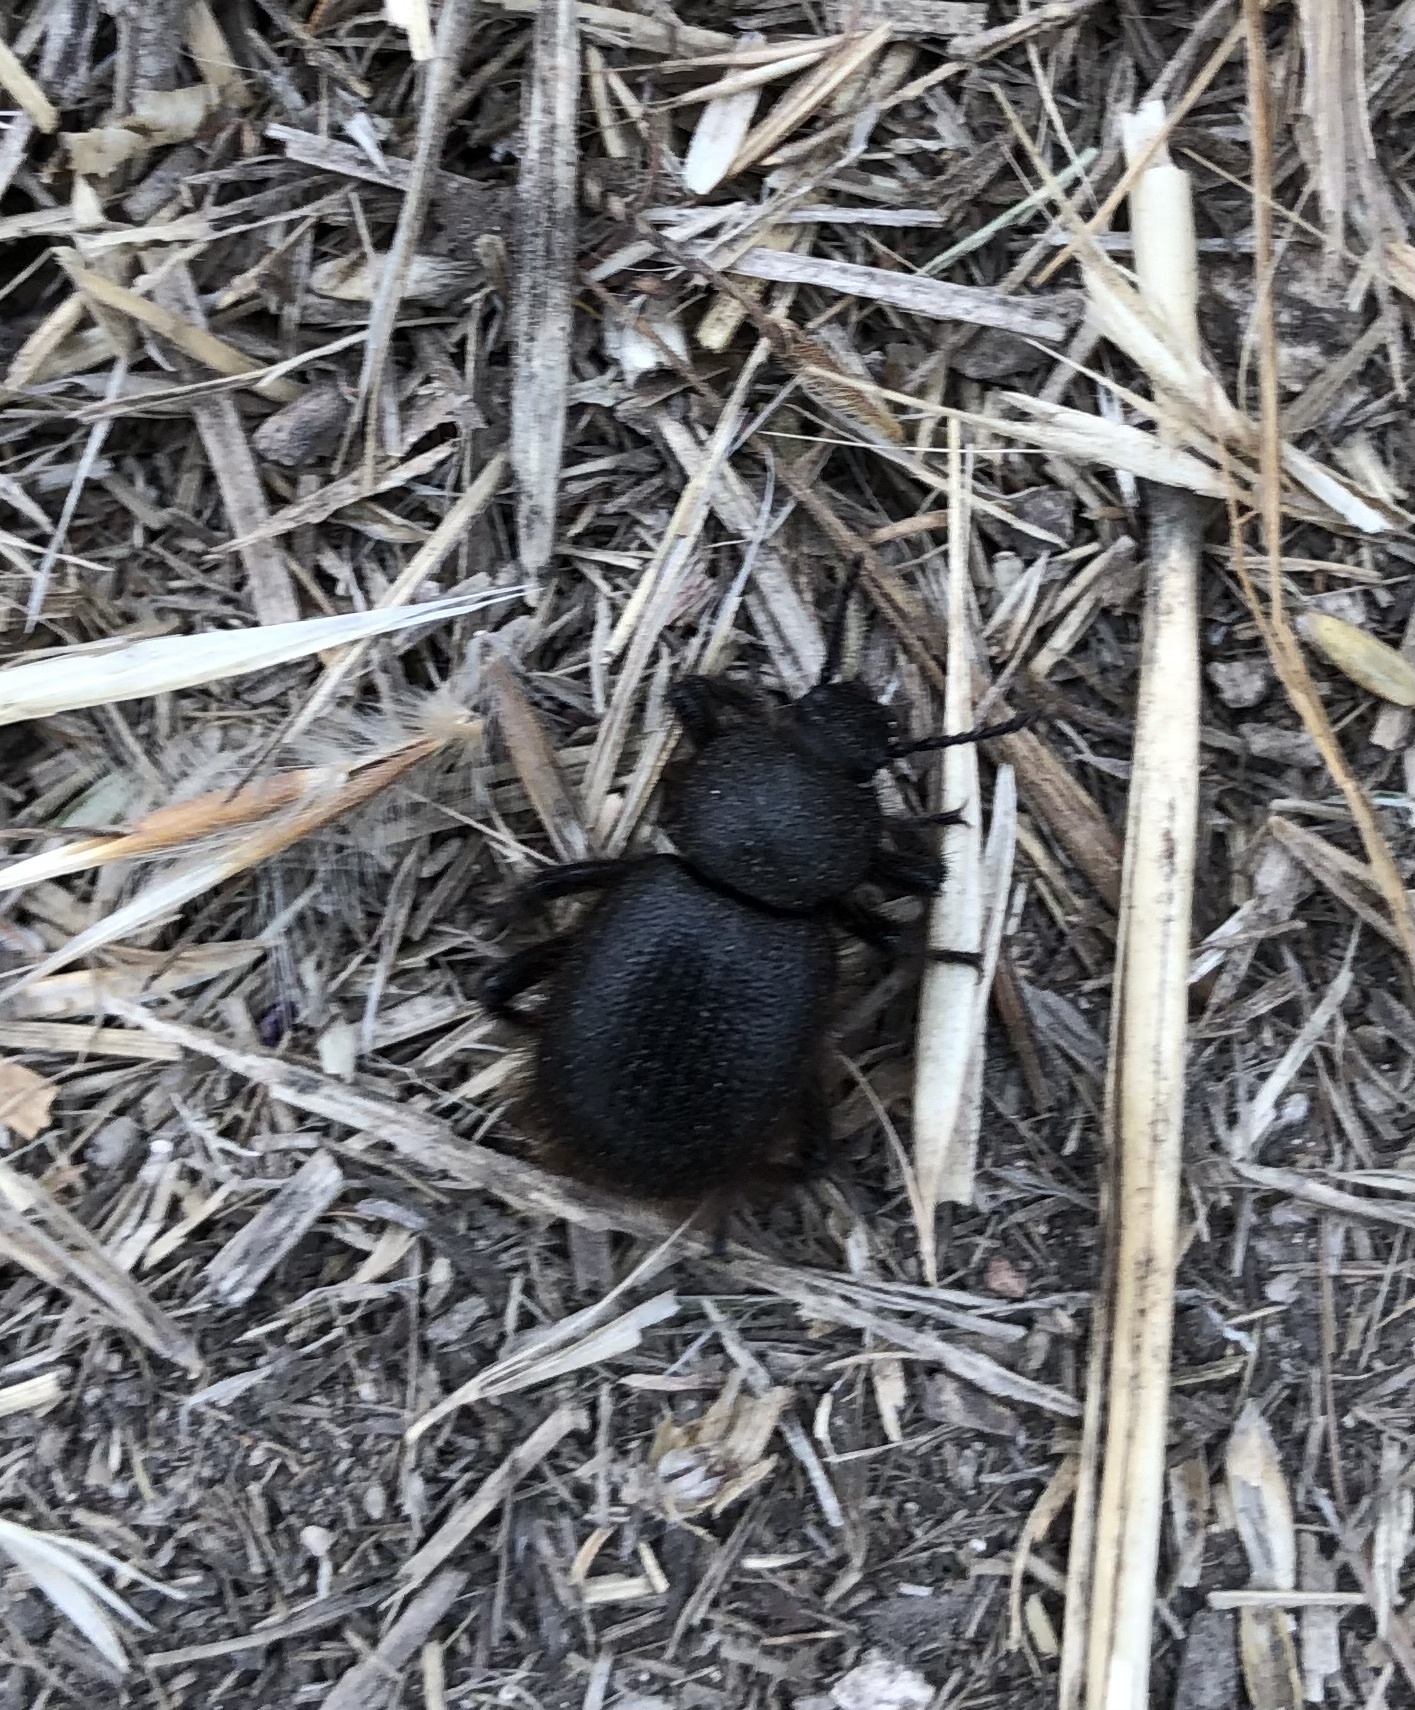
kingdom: Animalia
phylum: Arthropoda
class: Insecta
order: Coleoptera
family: Tenebrionidae
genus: Eleodes
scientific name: Eleodes osculans
